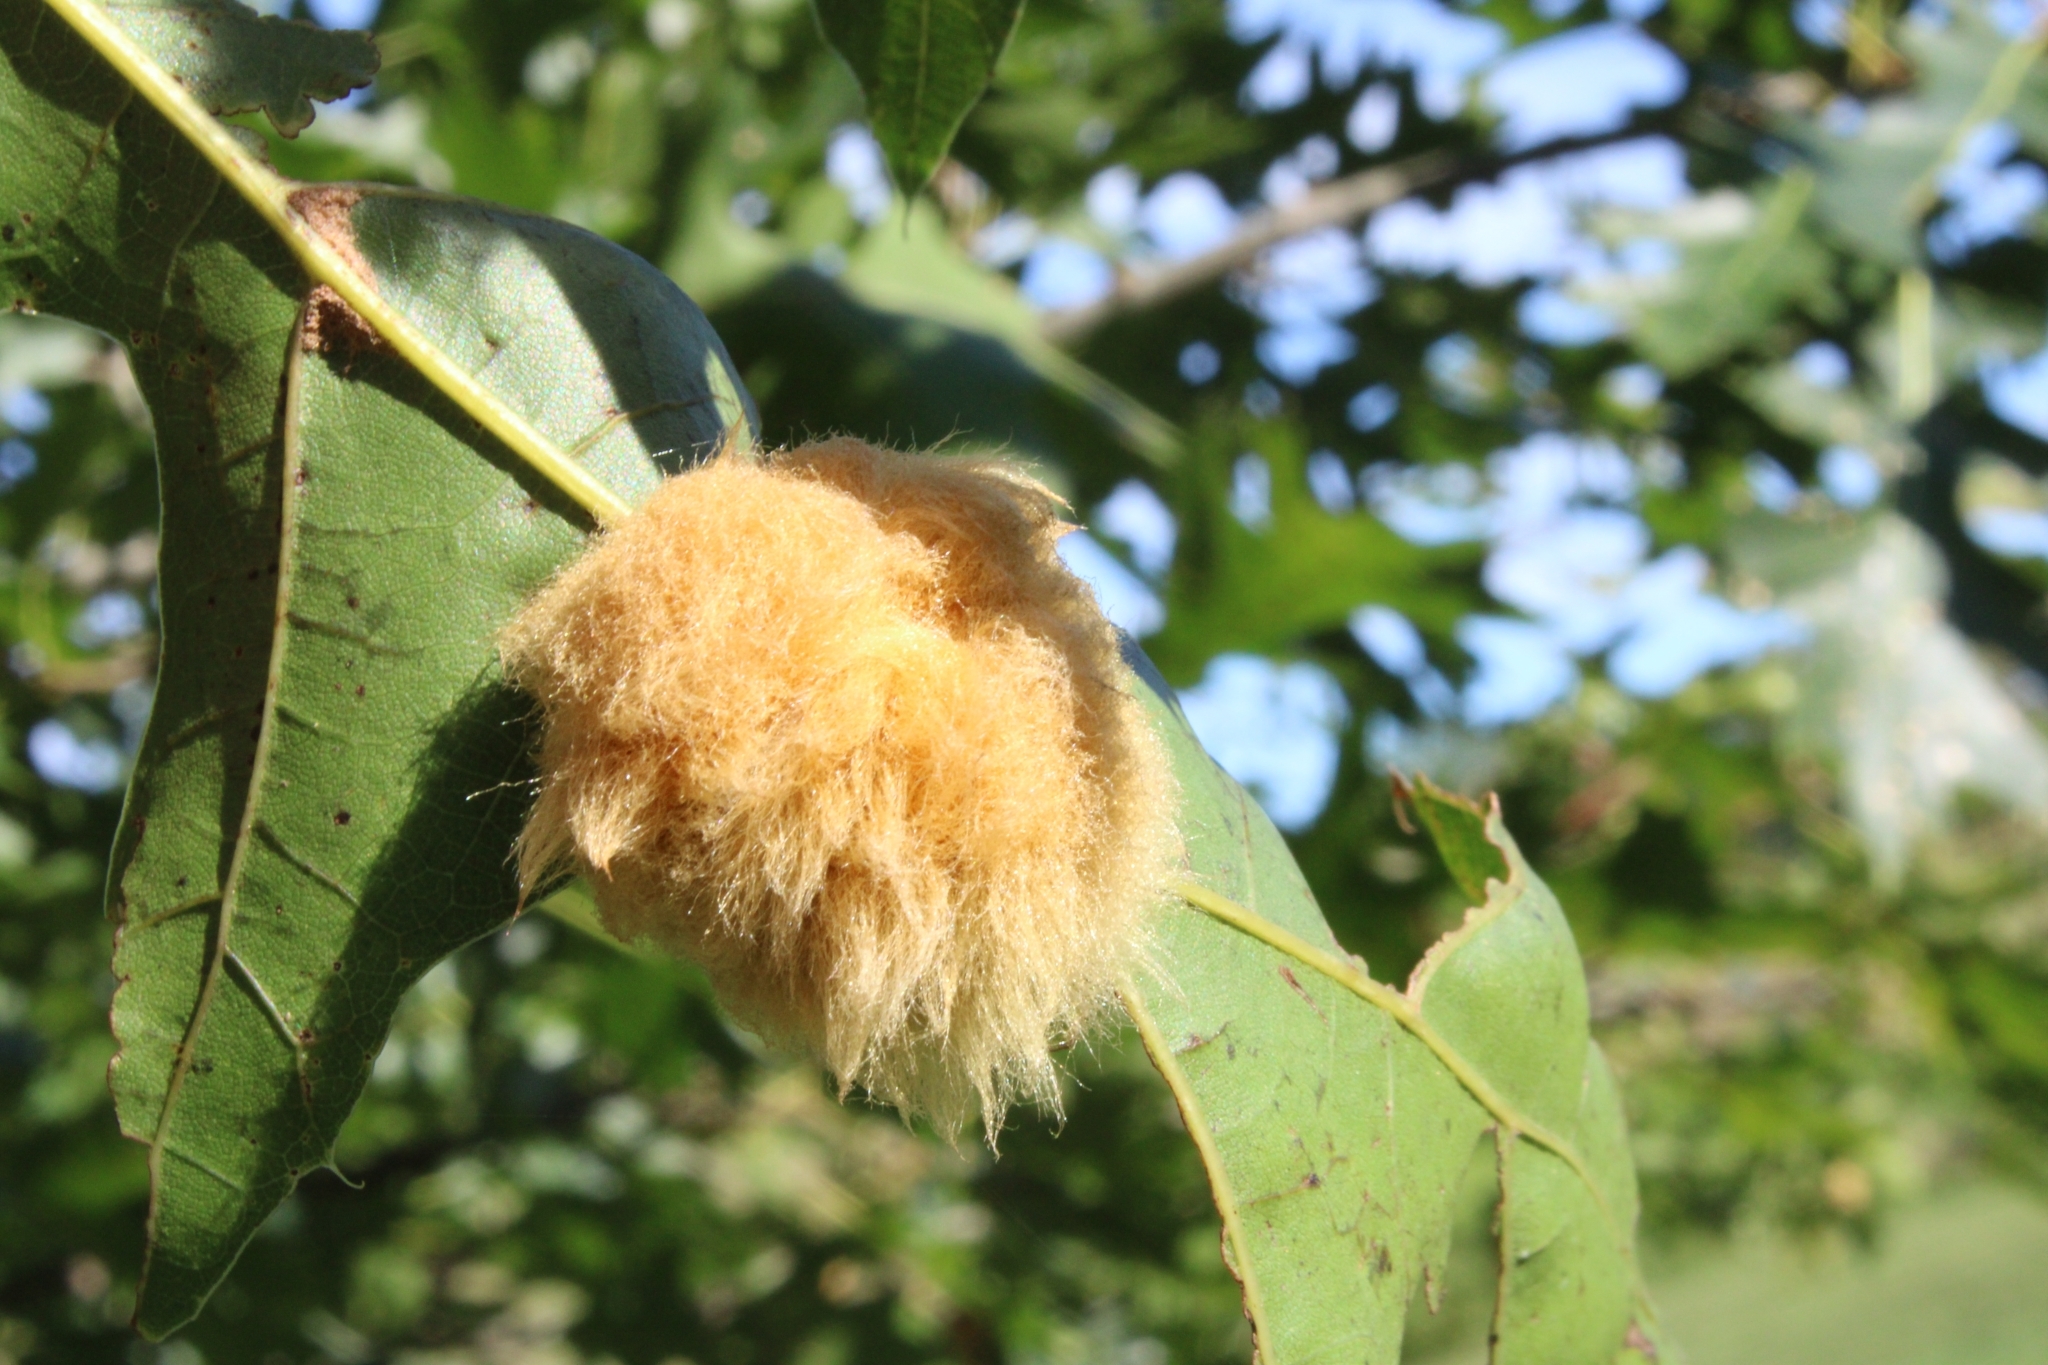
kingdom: Animalia
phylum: Arthropoda
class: Insecta
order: Hymenoptera
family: Cynipidae
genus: Callirhytis
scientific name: Callirhytis
